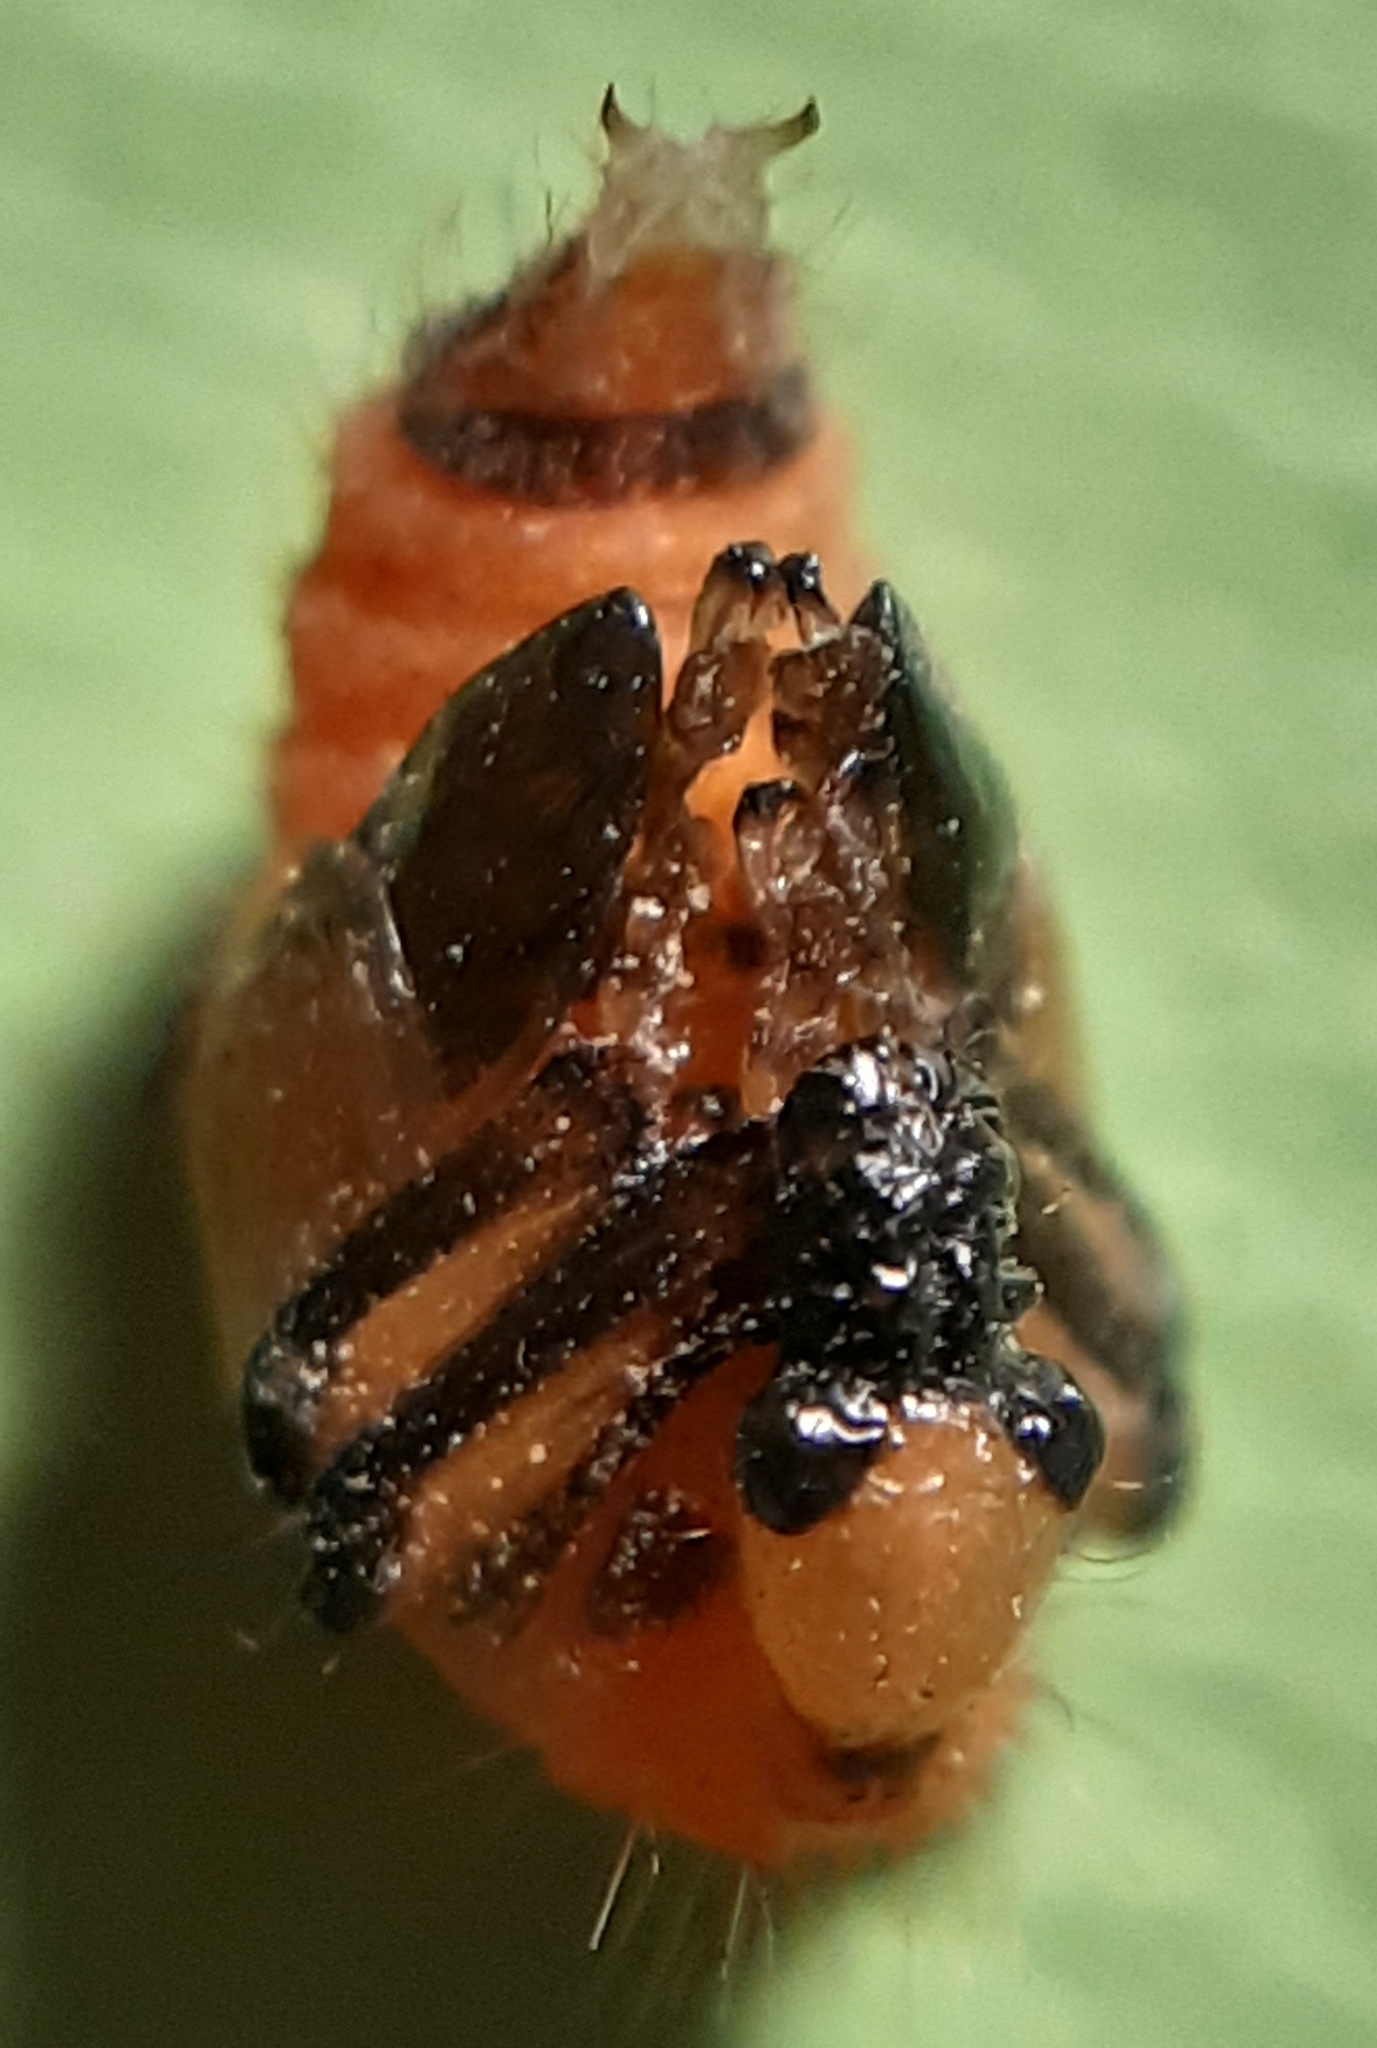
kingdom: Animalia
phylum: Arthropoda
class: Insecta
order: Coleoptera
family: Attelabidae
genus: Apoderus
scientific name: Apoderus coryli
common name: Hazel leaf roller
